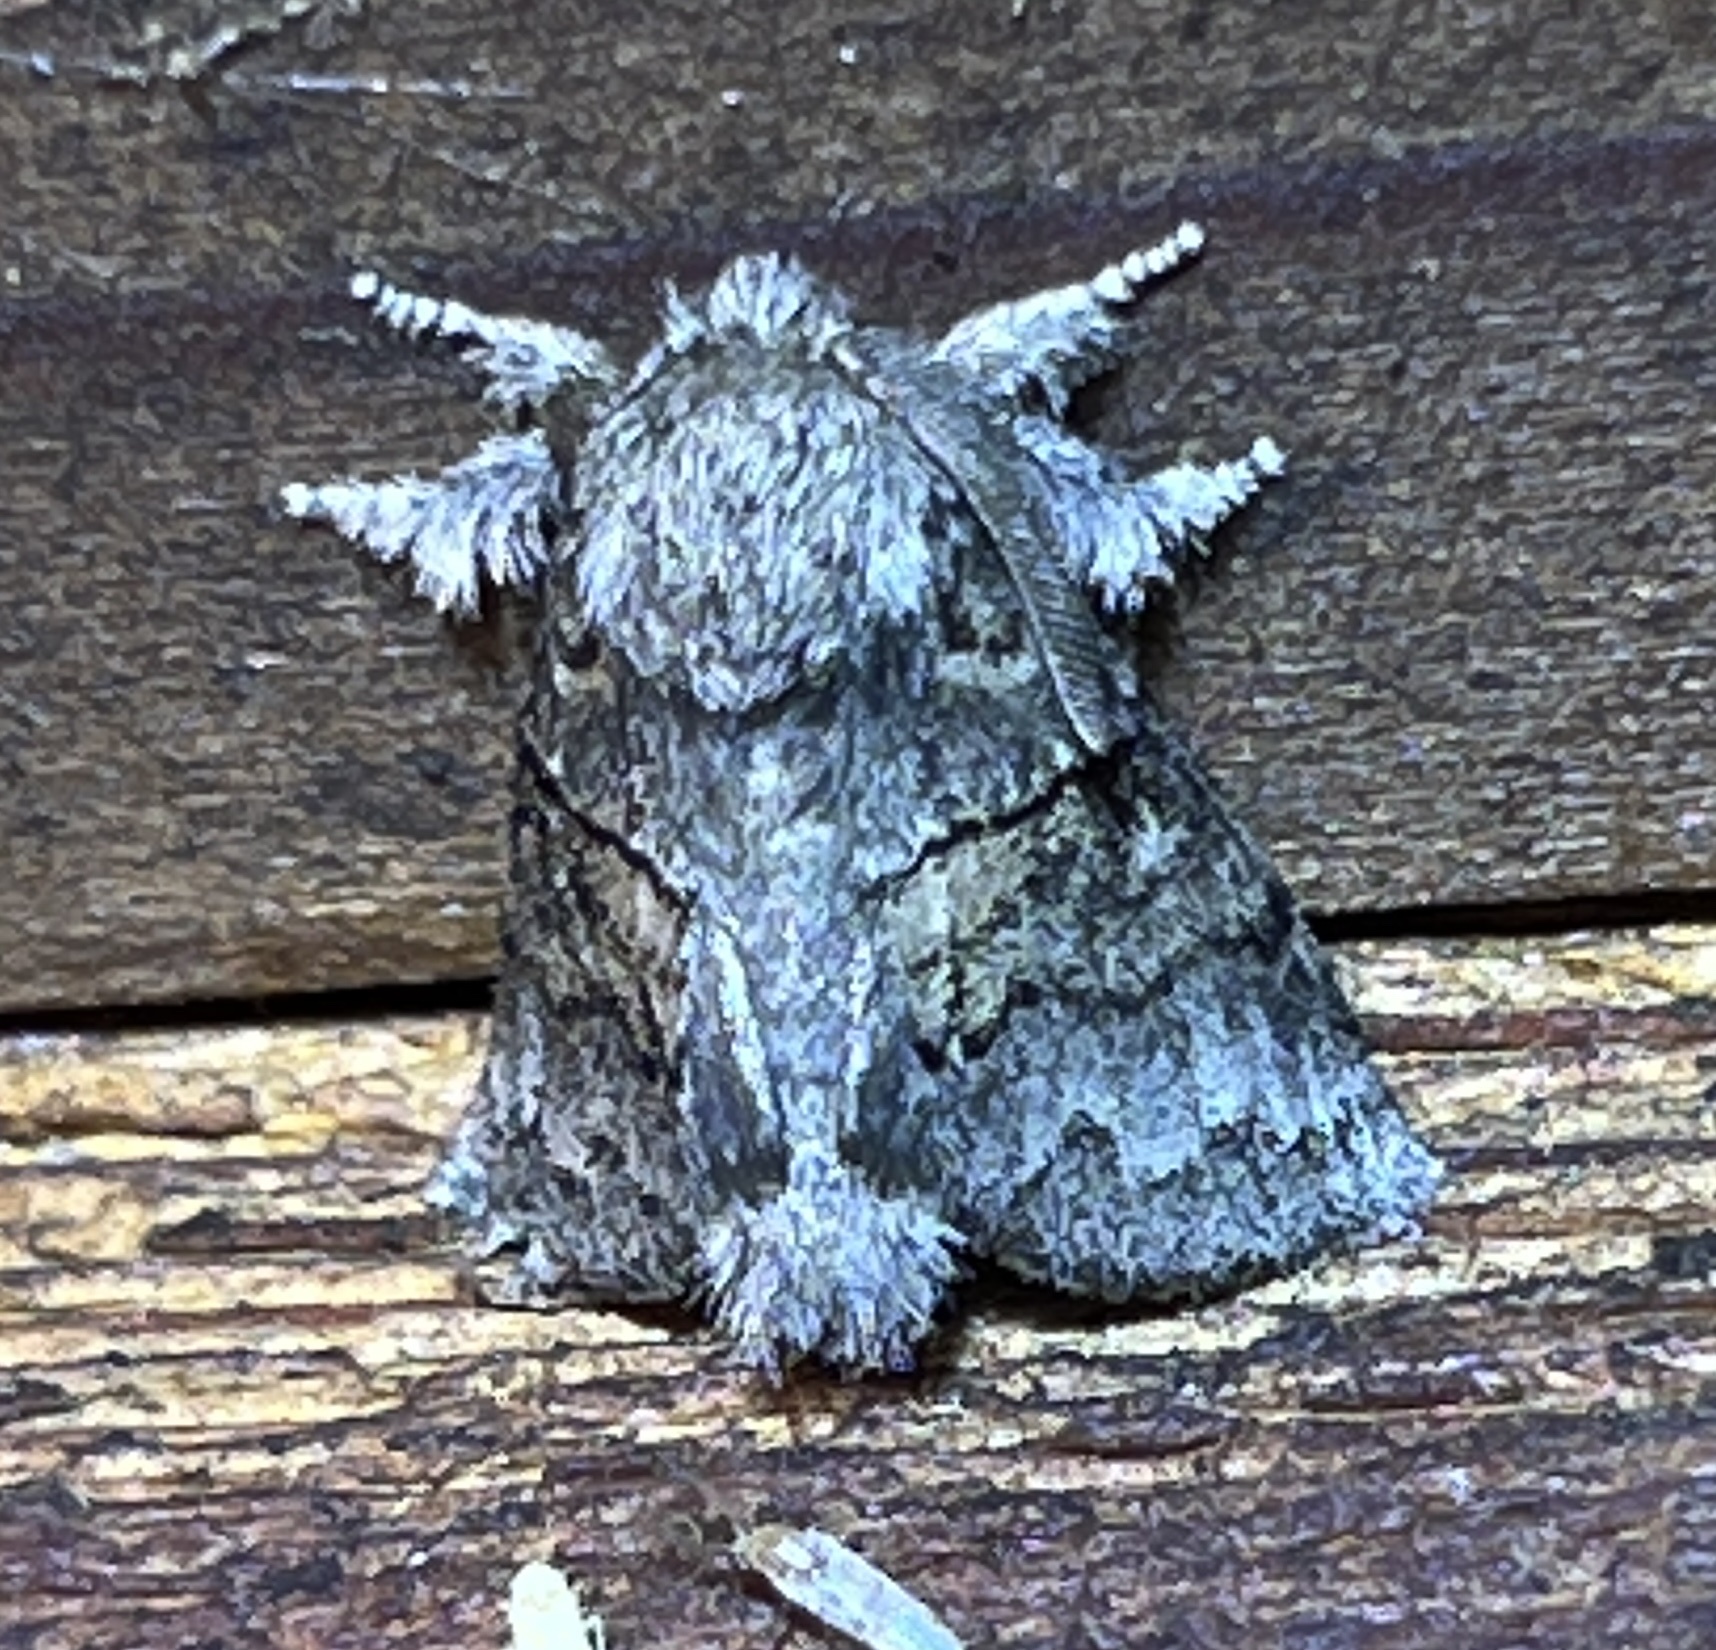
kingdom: Animalia
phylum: Arthropoda
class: Insecta
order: Lepidoptera
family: Notodontidae
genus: Gluphisia
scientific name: Gluphisia septentrionis
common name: Common gluphisia
